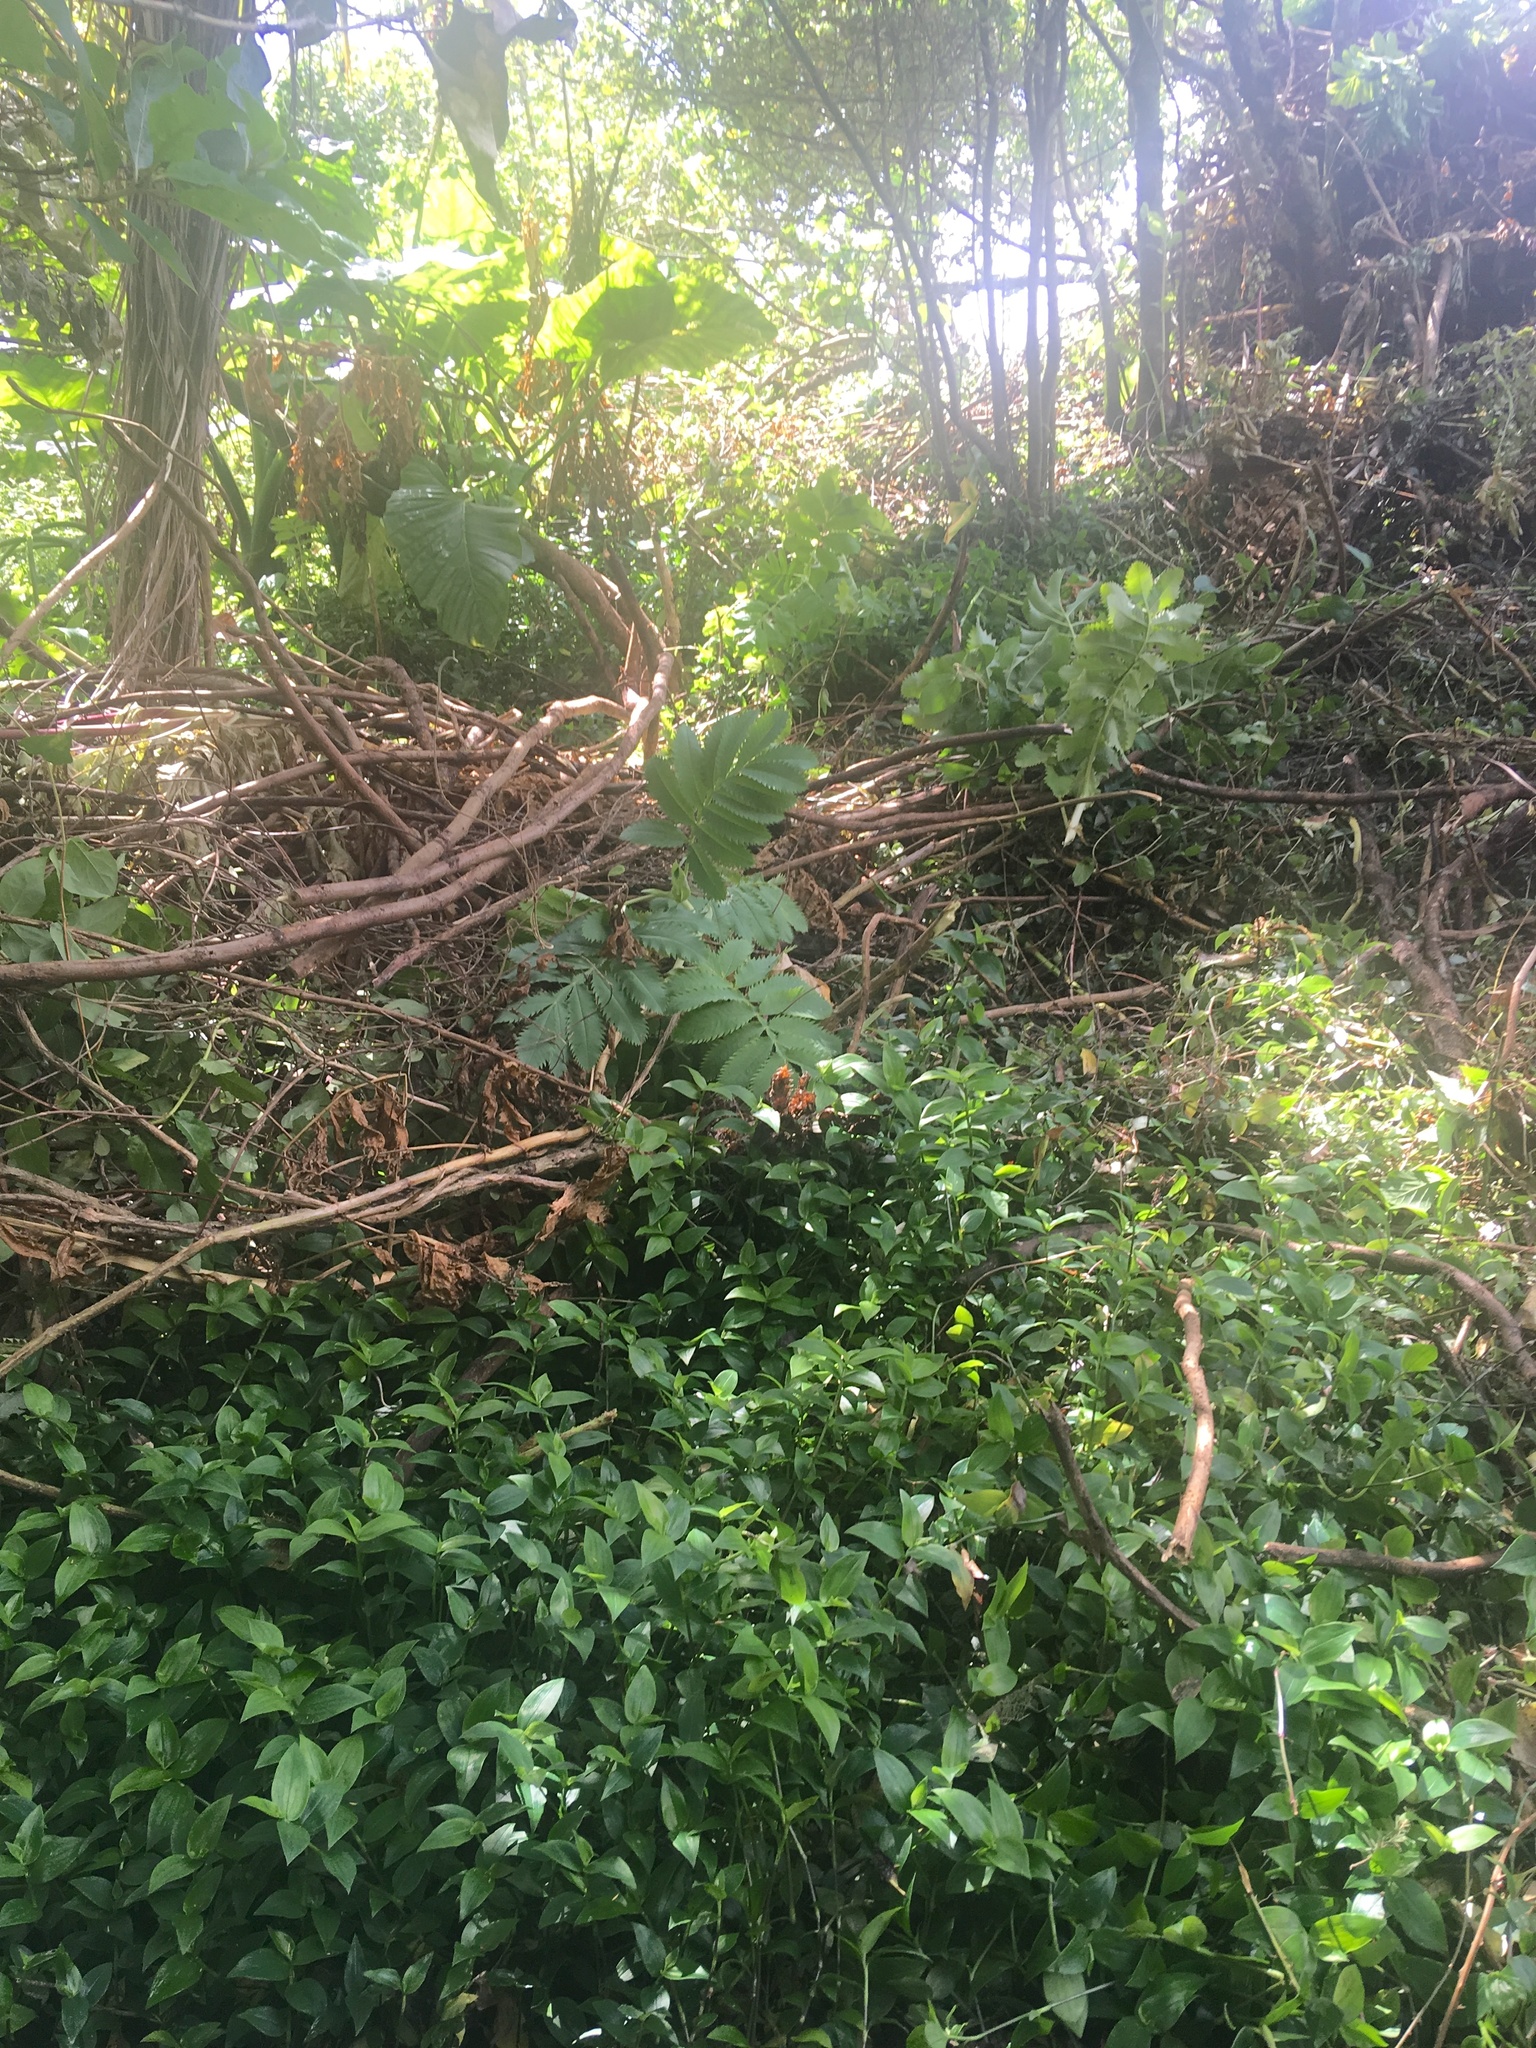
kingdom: Plantae
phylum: Tracheophyta
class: Liliopsida
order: Commelinales
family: Commelinaceae
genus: Tradescantia
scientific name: Tradescantia fluminensis
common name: Wandering-jew
